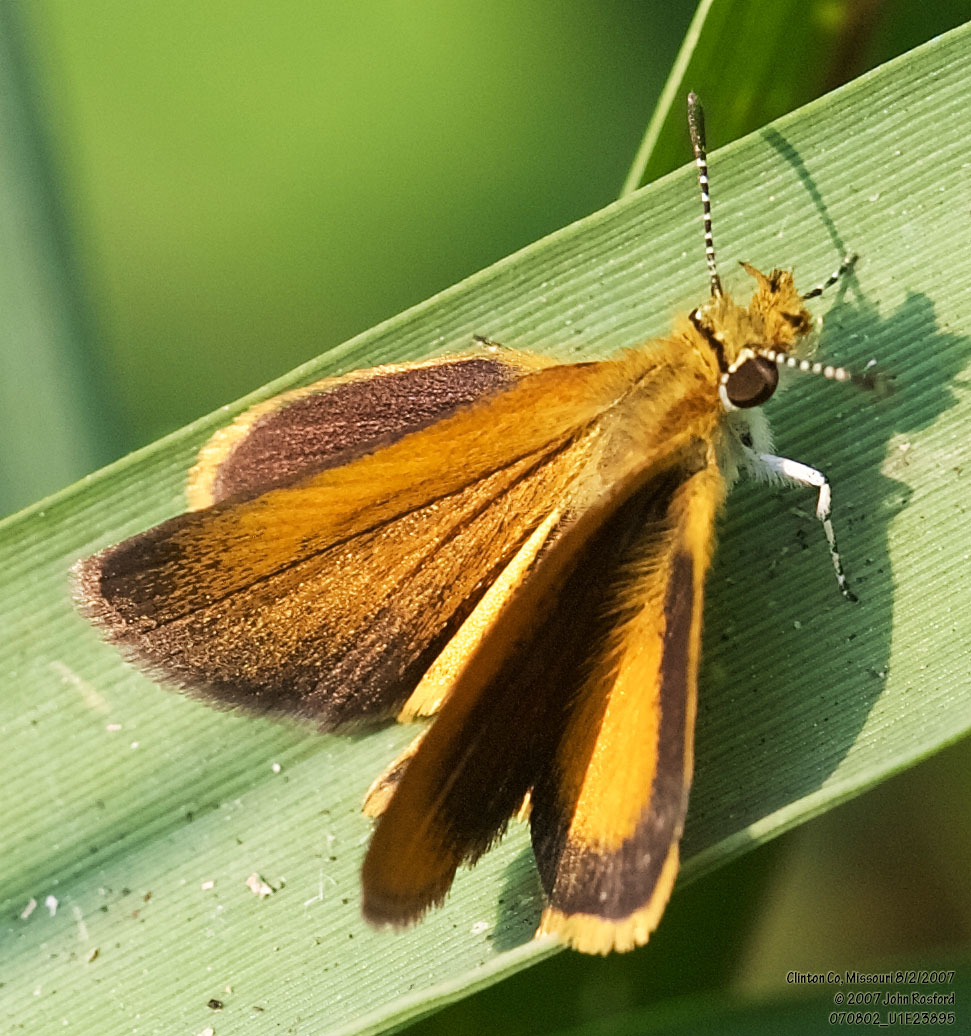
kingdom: Animalia
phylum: Arthropoda
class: Insecta
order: Lepidoptera
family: Hesperiidae
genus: Ancyloxypha
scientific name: Ancyloxypha numitor
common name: Least skipper
